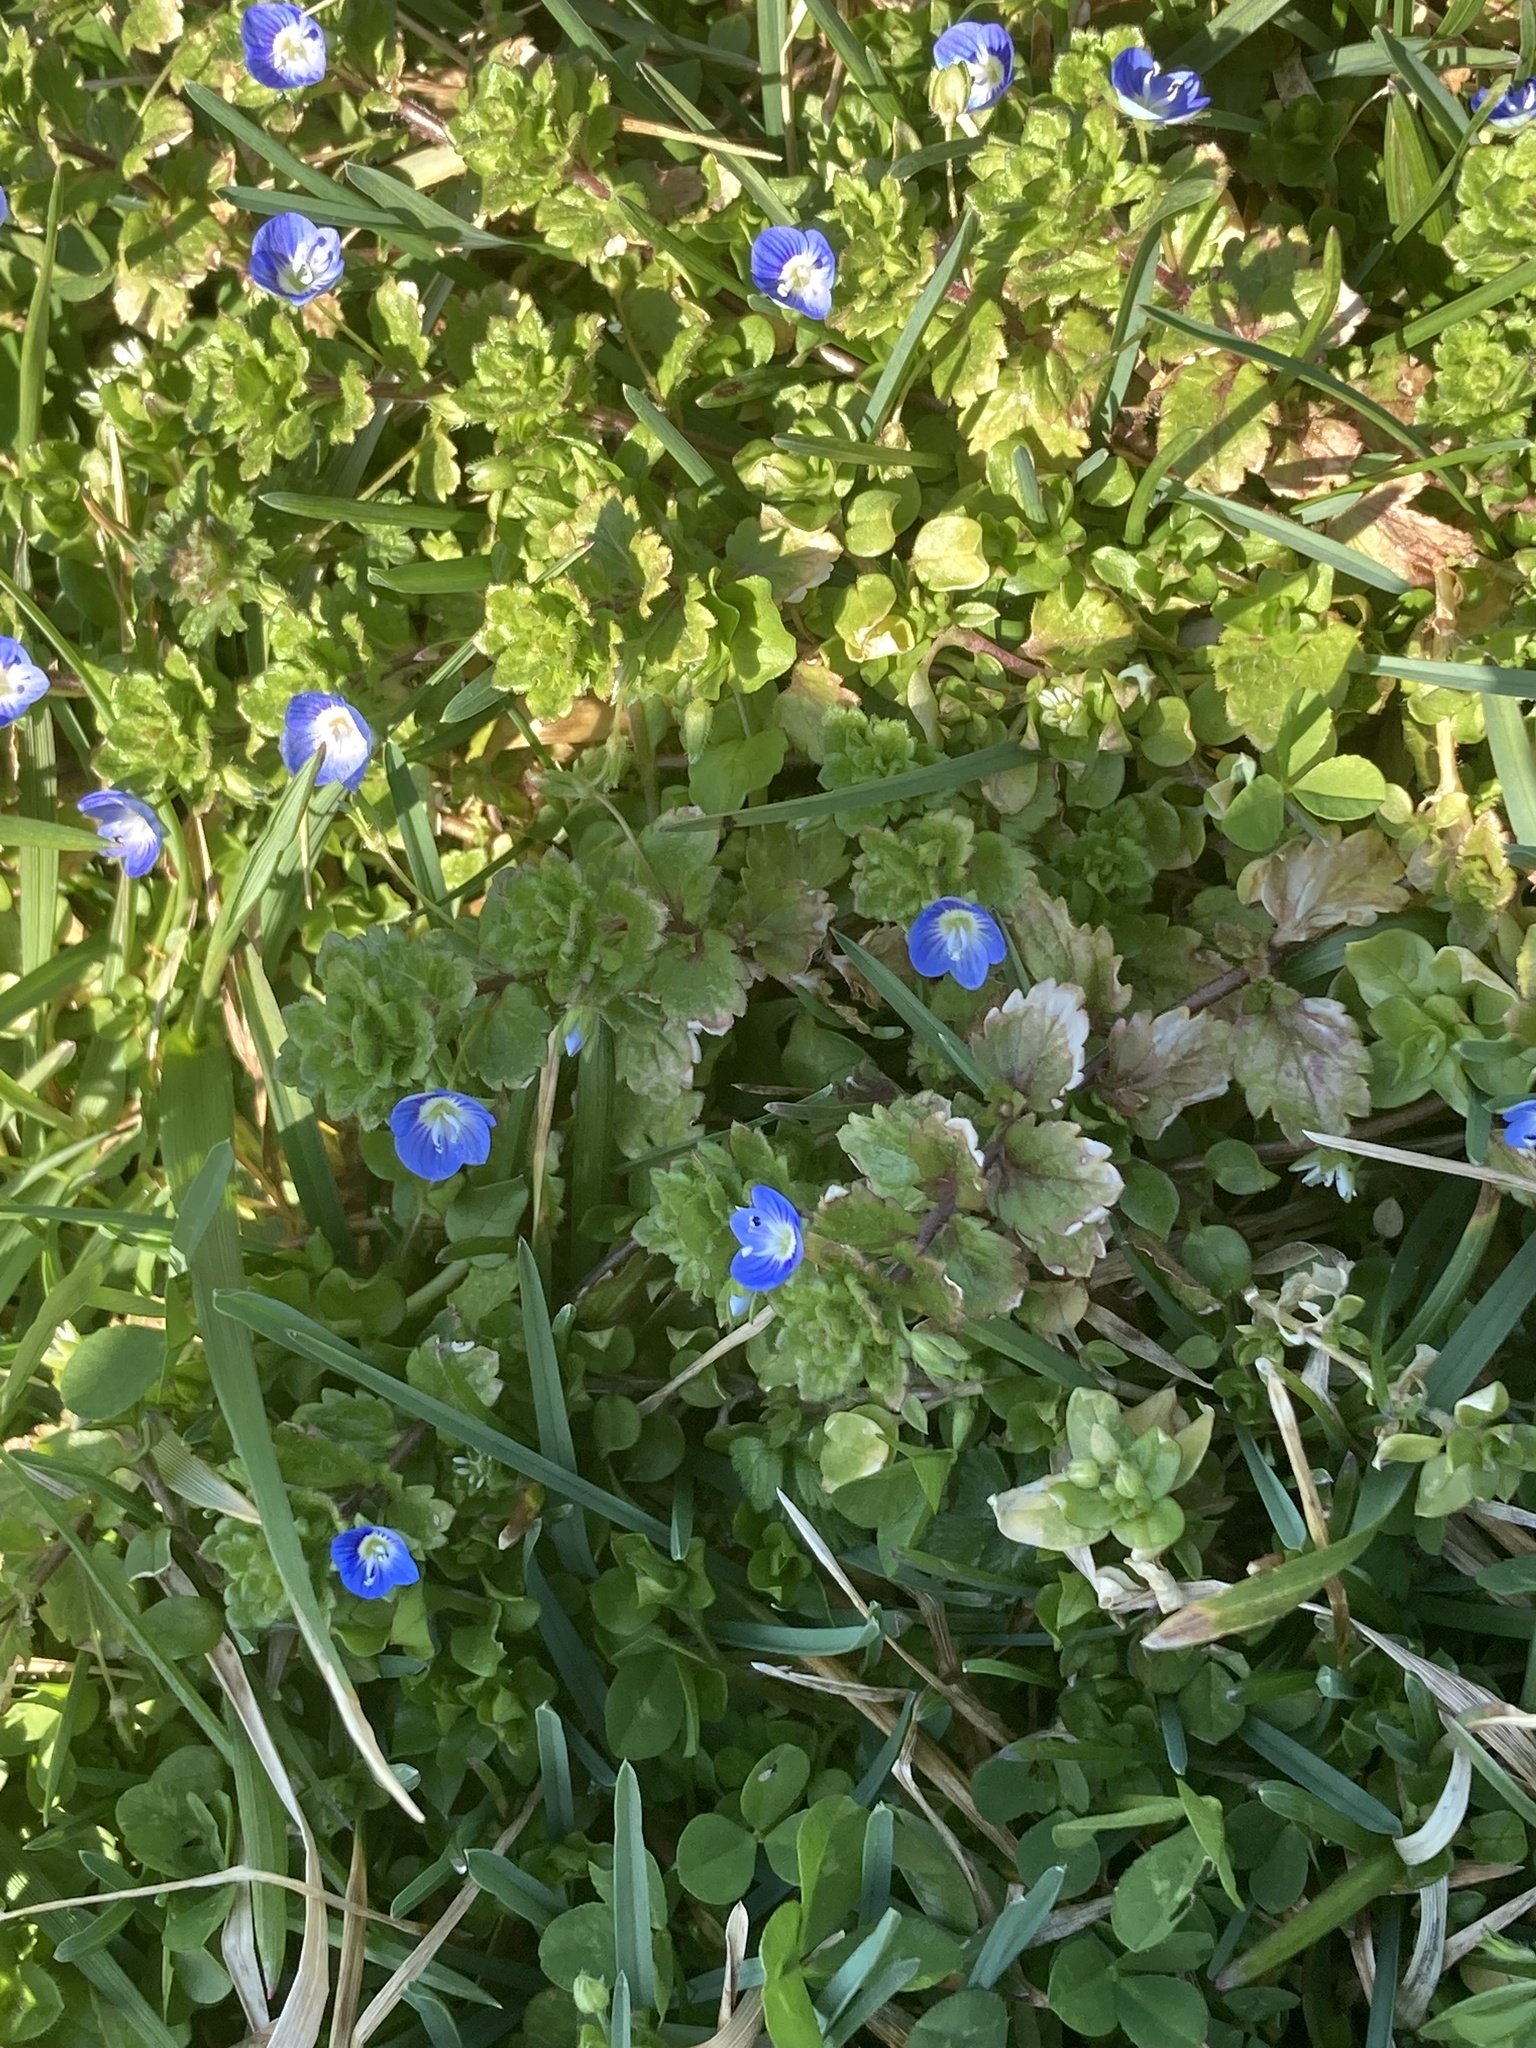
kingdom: Plantae
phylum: Tracheophyta
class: Magnoliopsida
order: Lamiales
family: Plantaginaceae
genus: Veronica
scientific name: Veronica persica
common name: Common field-speedwell
